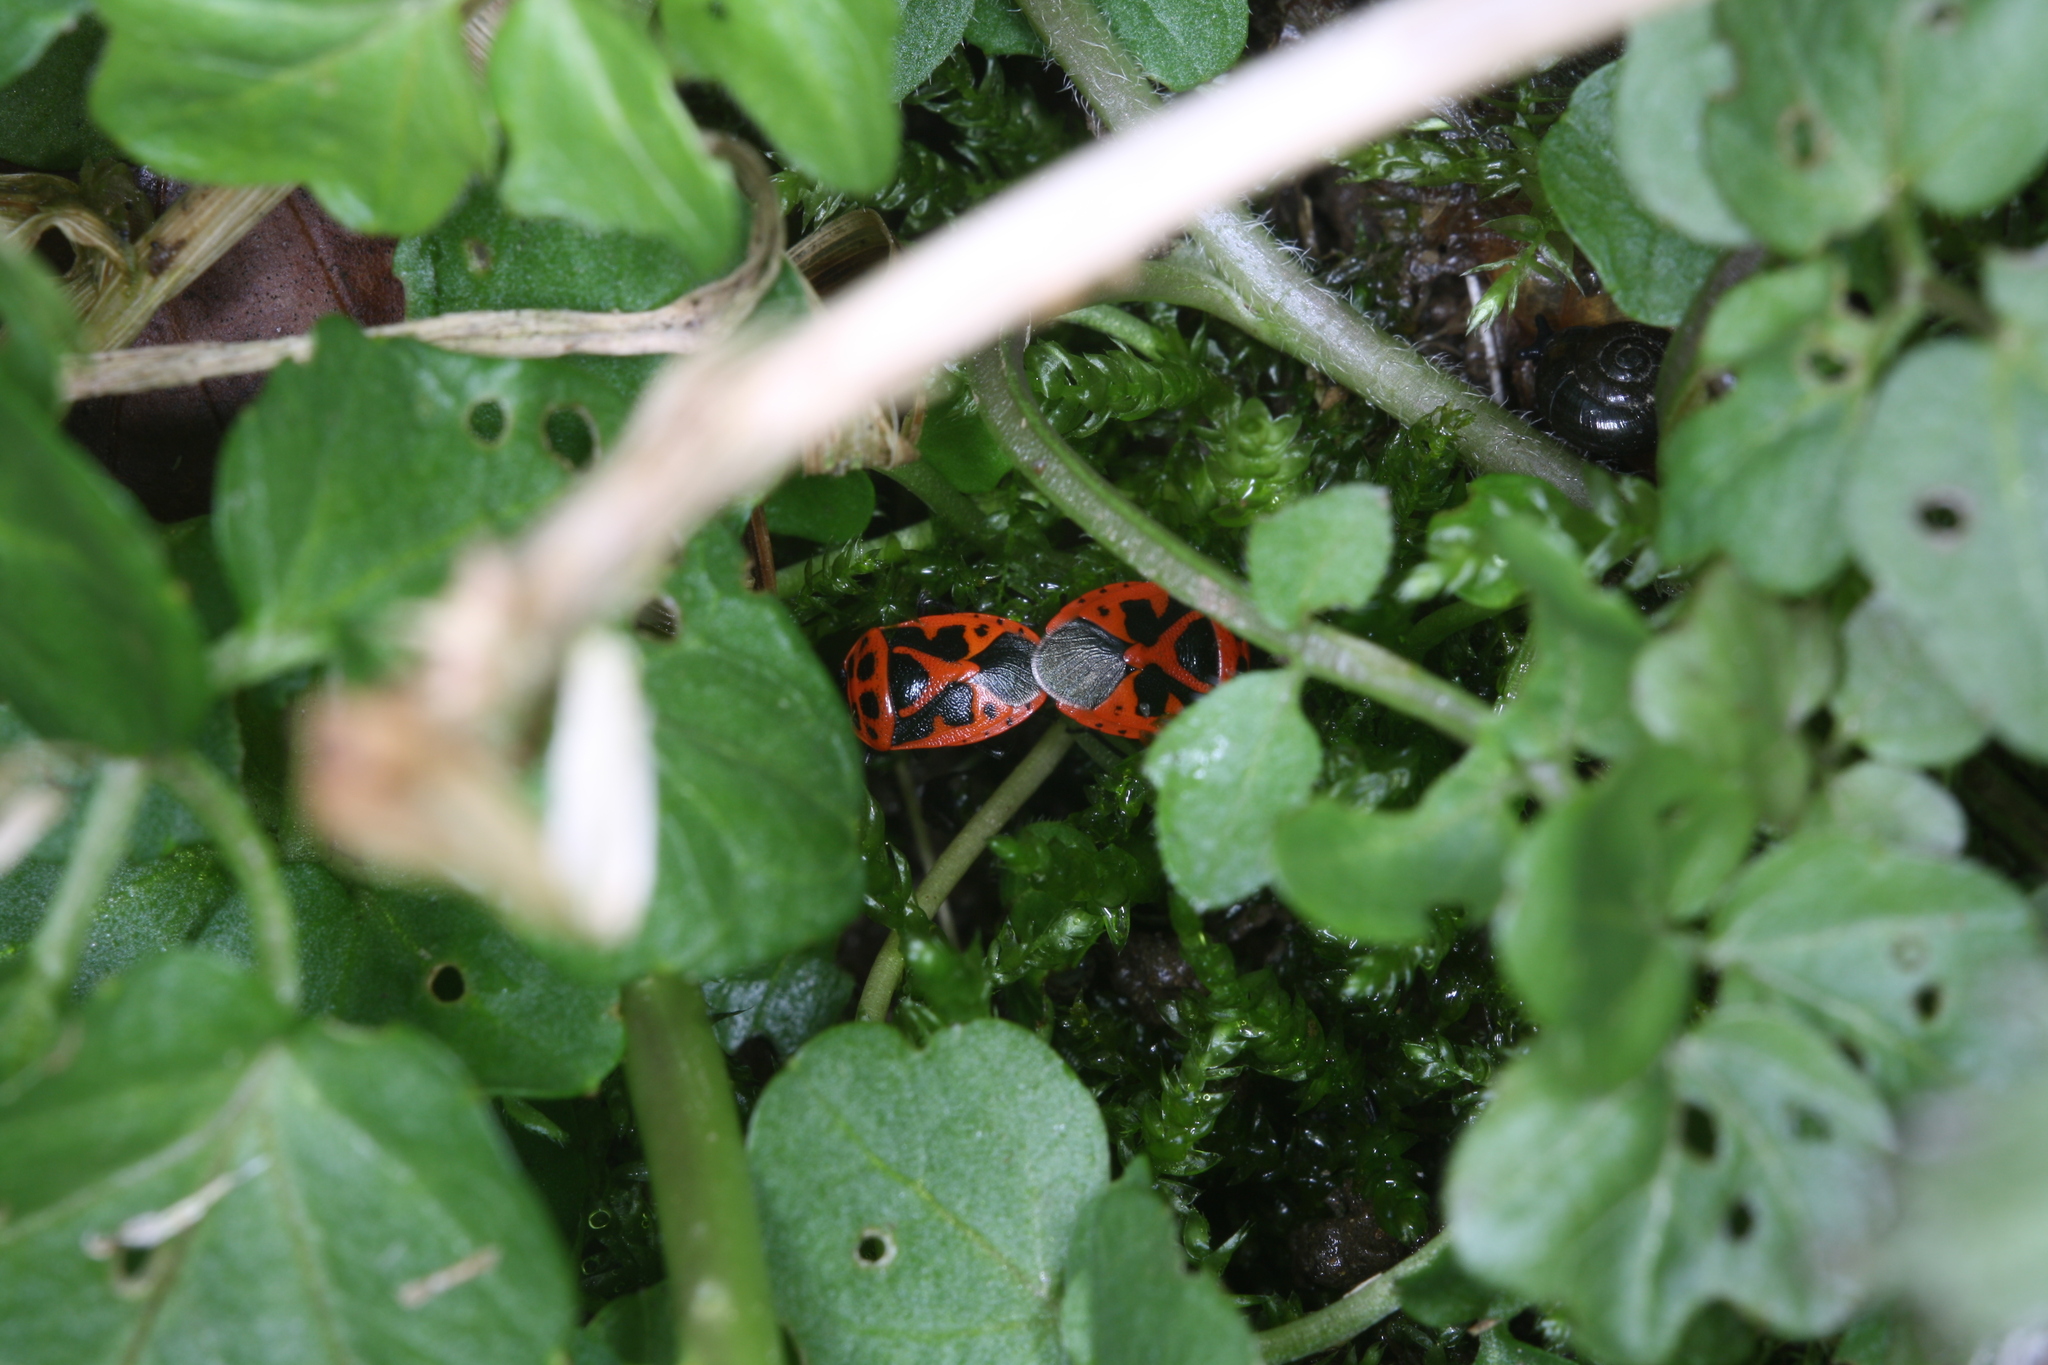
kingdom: Animalia
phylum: Arthropoda
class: Insecta
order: Hemiptera
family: Pentatomidae
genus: Eurydema
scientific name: Eurydema dominulus
